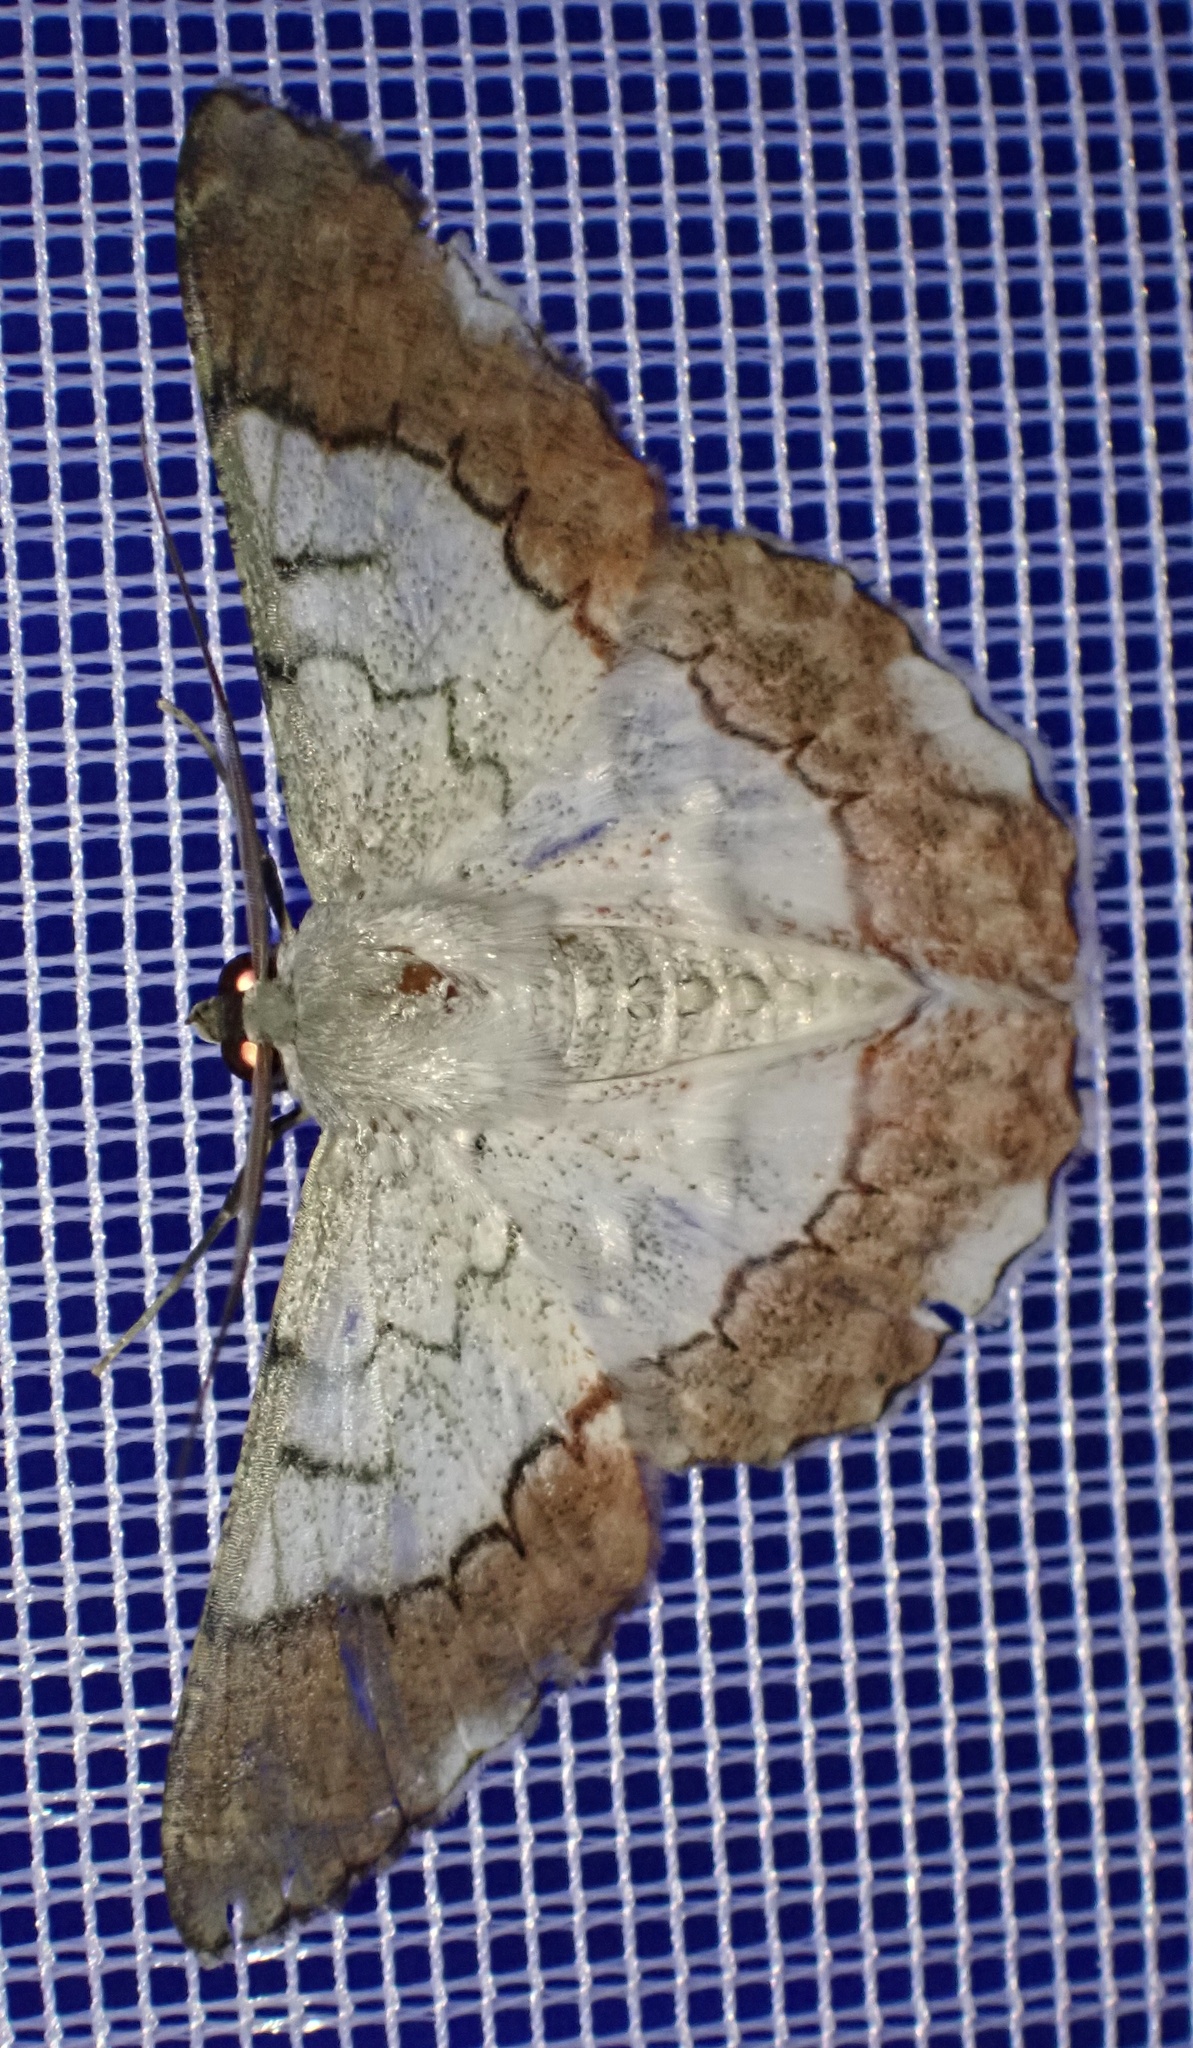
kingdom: Animalia
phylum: Arthropoda
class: Insecta
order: Lepidoptera
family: Geometridae
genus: Pingasa
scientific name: Pingasa nobilis
